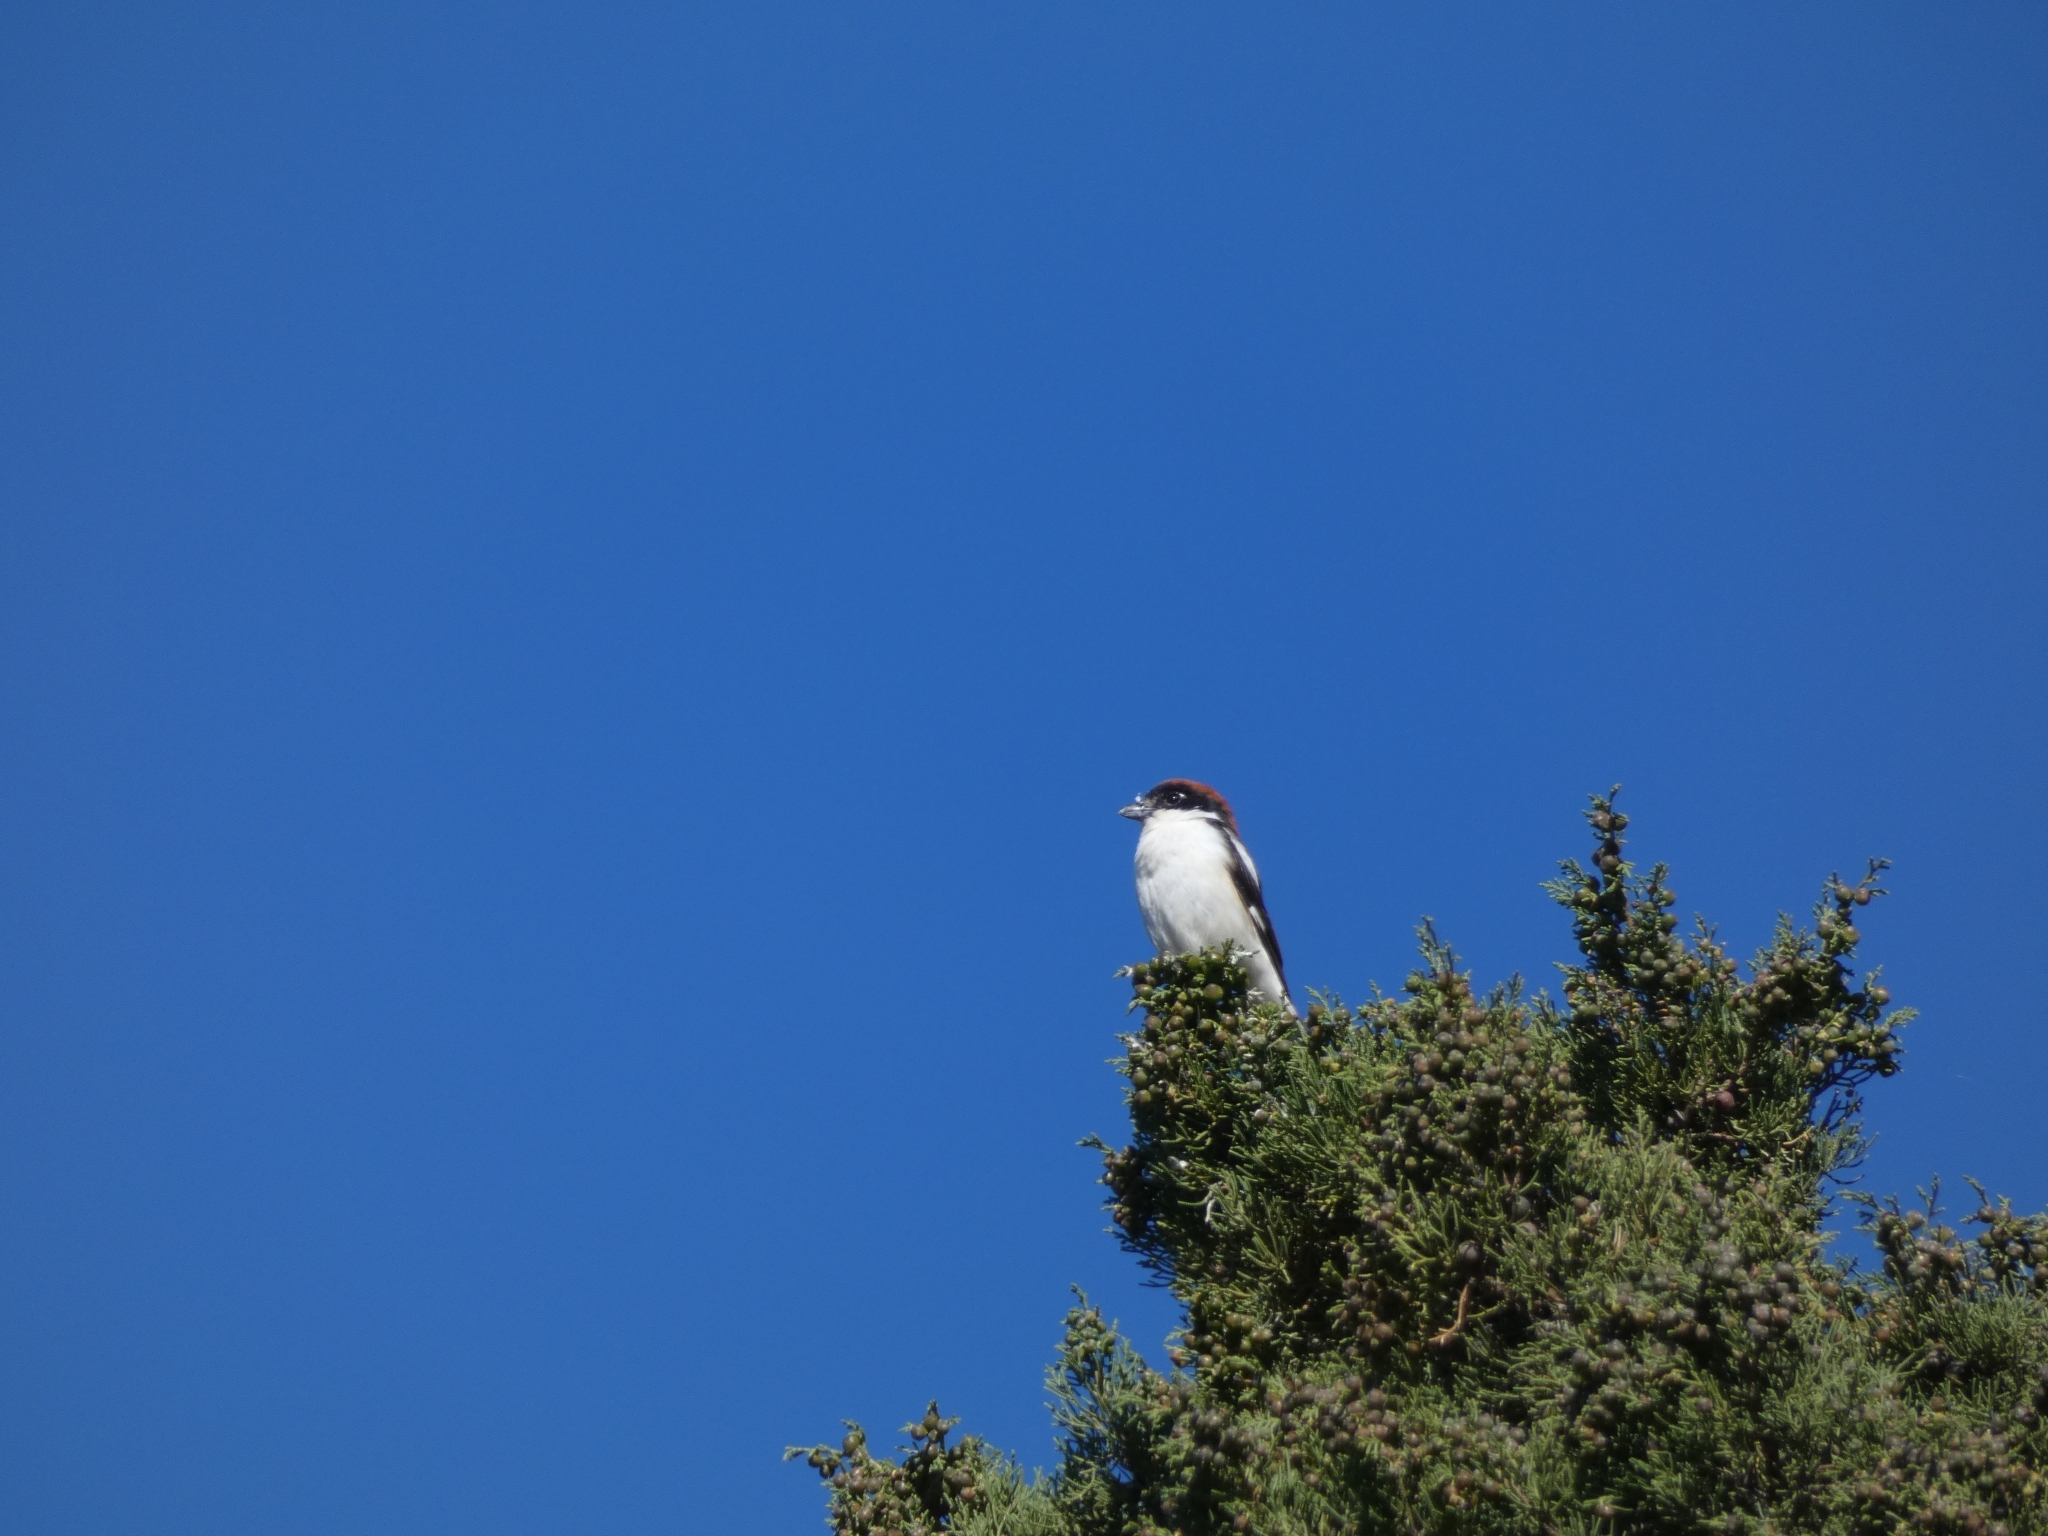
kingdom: Animalia
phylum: Chordata
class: Aves
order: Passeriformes
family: Laniidae
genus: Lanius
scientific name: Lanius senator
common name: Woodchat shrike
